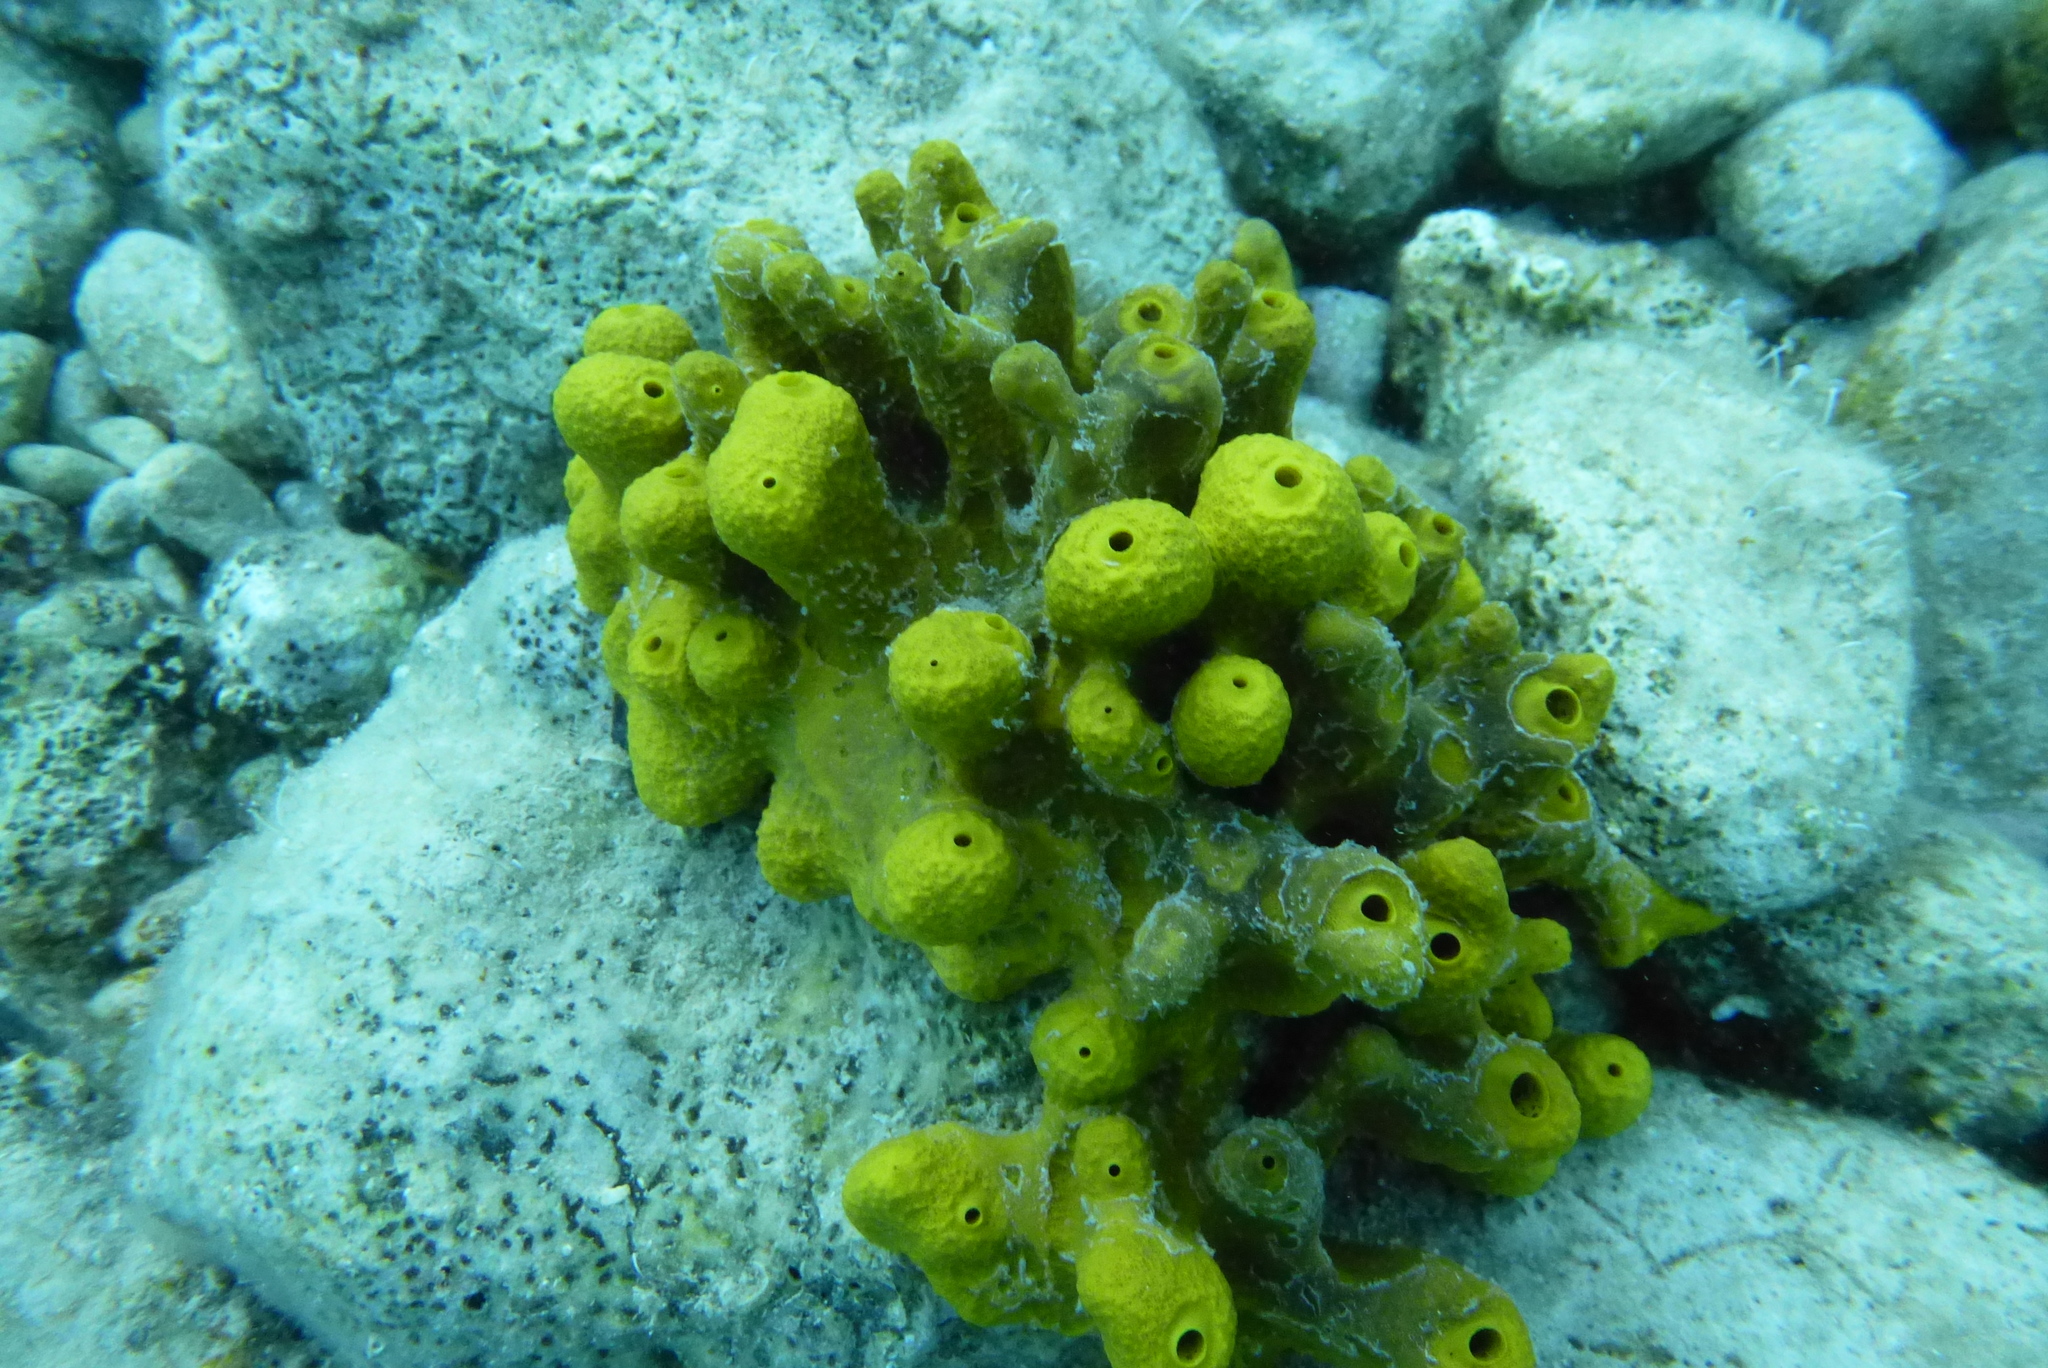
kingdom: Animalia
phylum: Porifera
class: Demospongiae
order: Verongiida
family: Aplysinidae
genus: Aplysina
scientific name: Aplysina aerophoba
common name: Aureate sponge
